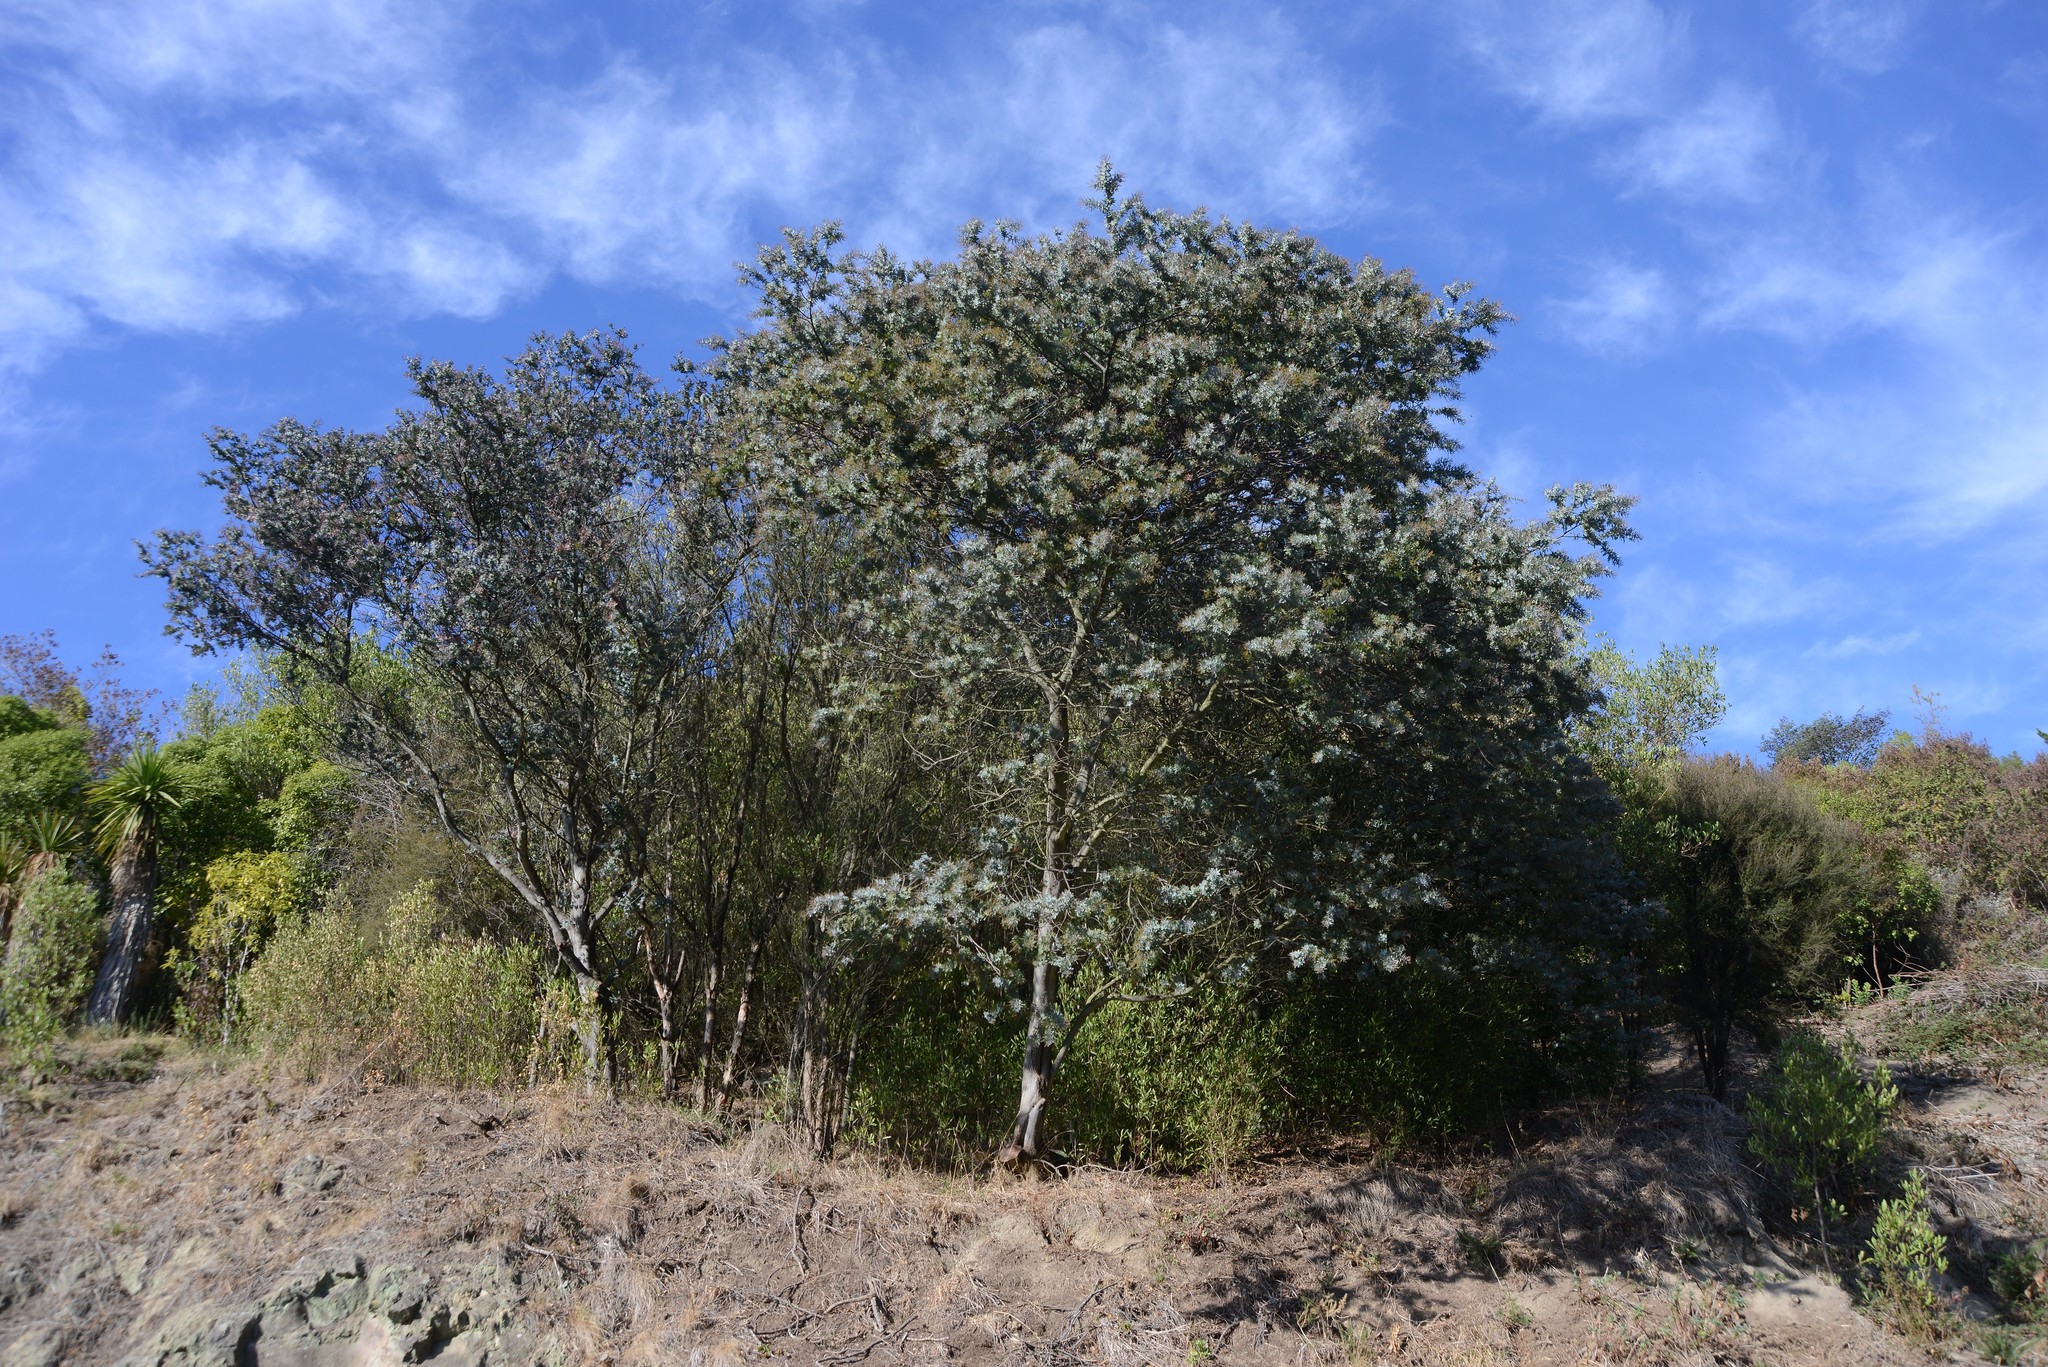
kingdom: Plantae
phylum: Tracheophyta
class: Magnoliopsida
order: Fabales
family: Fabaceae
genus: Acacia
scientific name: Acacia baileyana
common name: Cootamundra wattle
